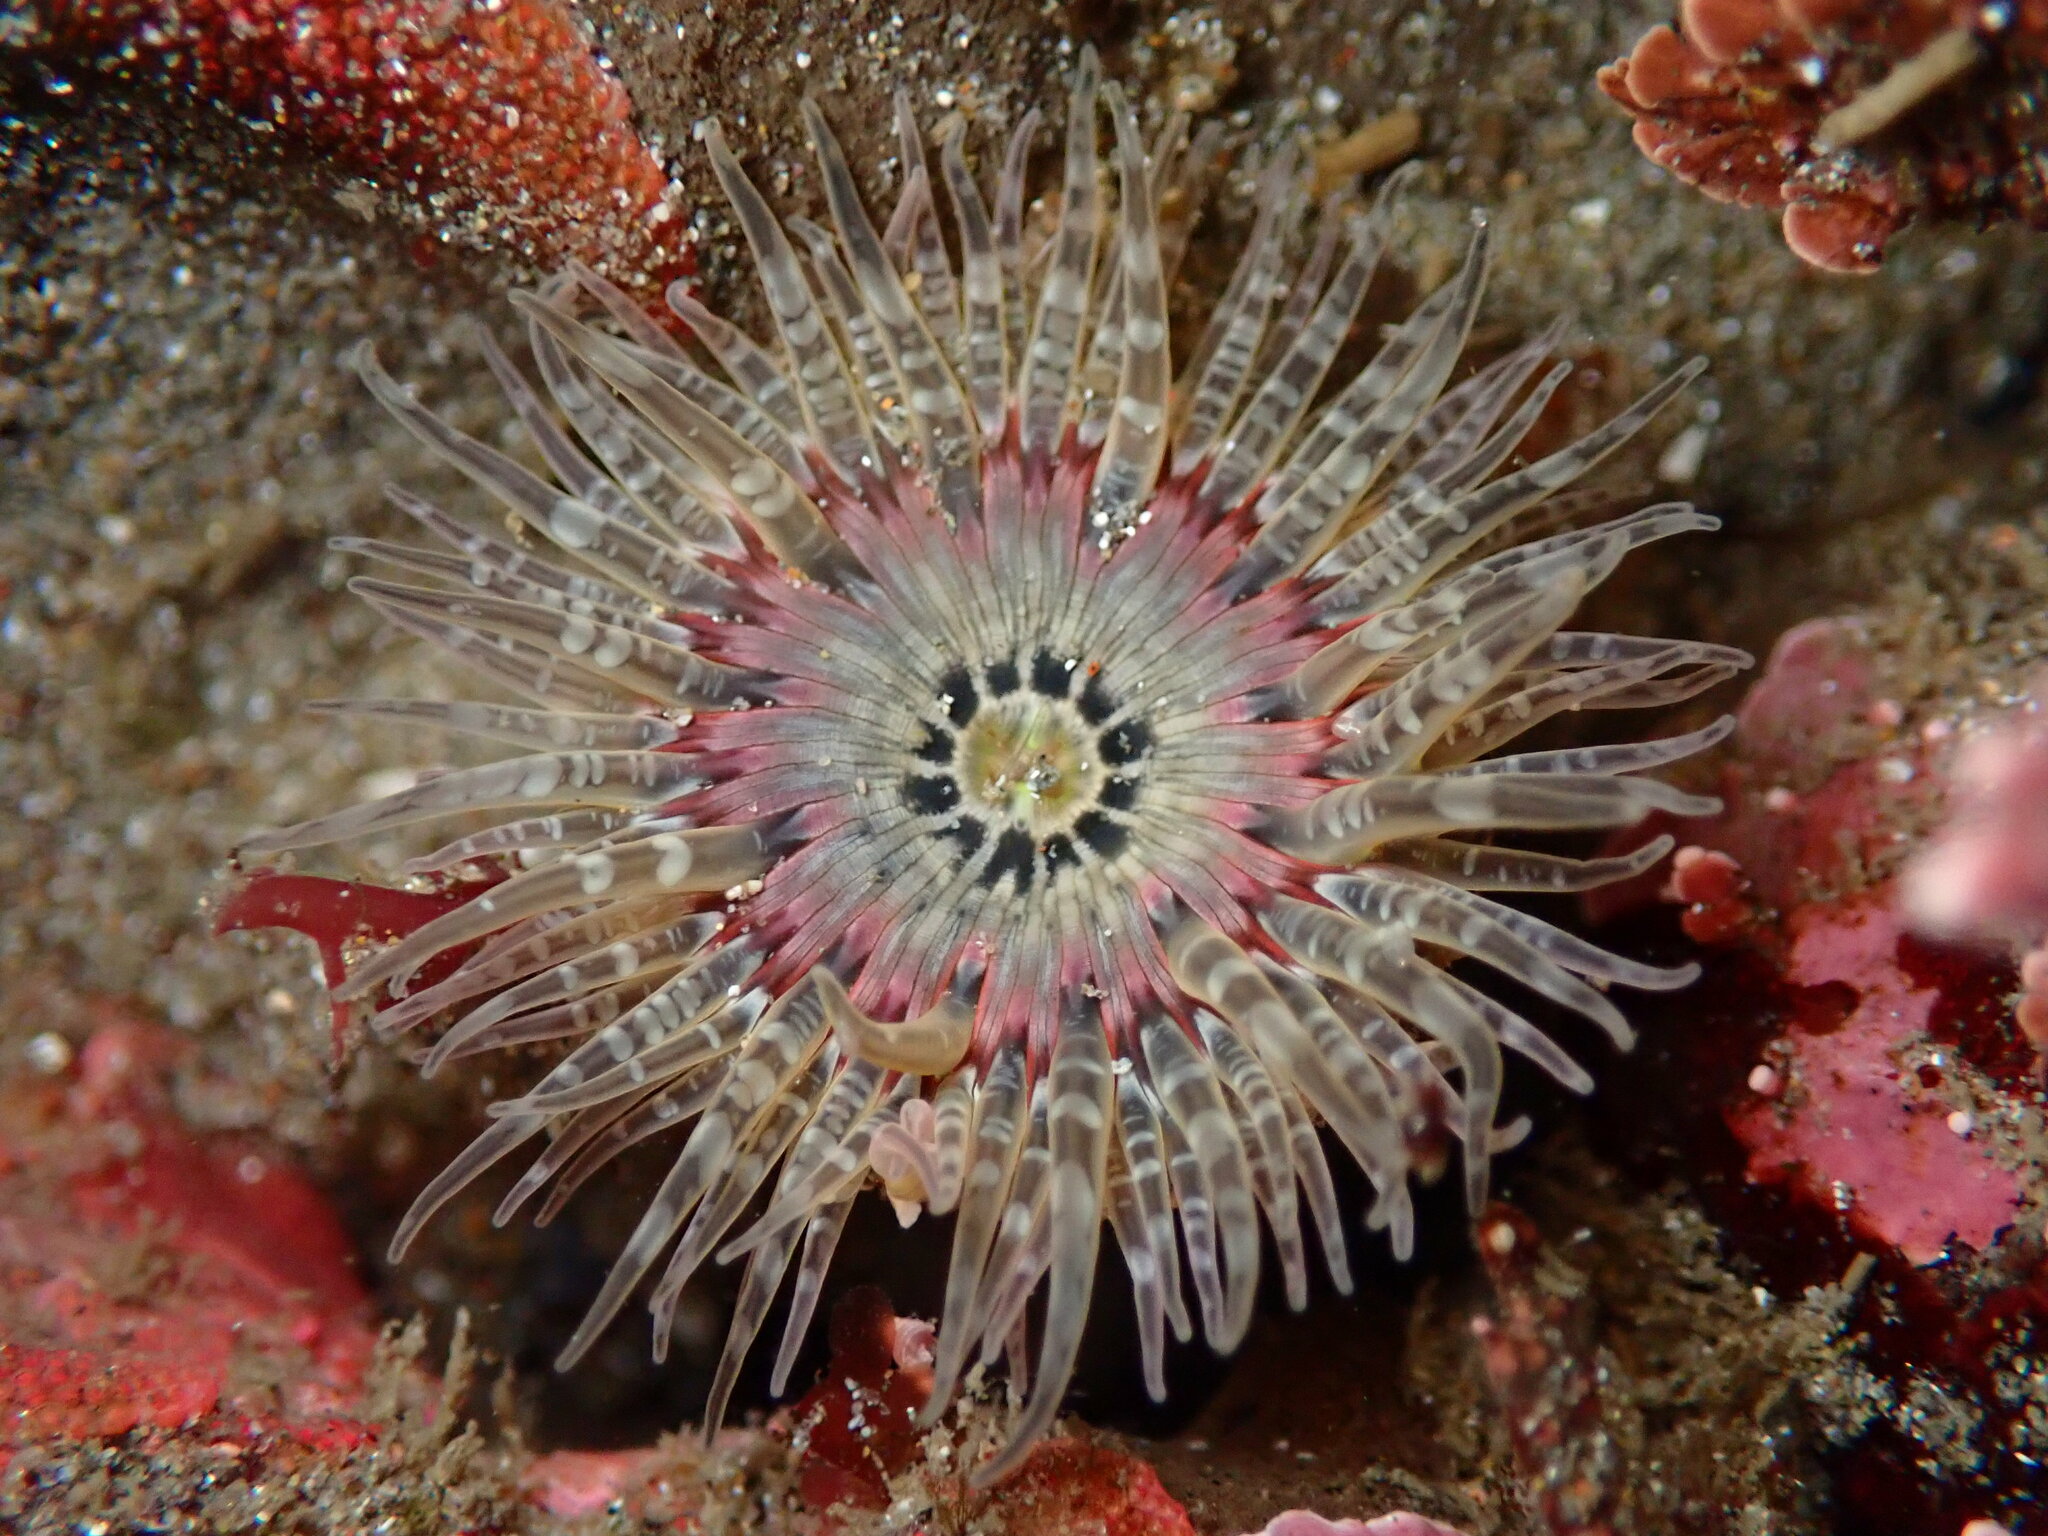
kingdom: Animalia
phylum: Cnidaria
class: Anthozoa
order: Actiniaria
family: Actiniidae
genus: Anthopleura
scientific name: Anthopleura artemisia
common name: Buried sea anemone
